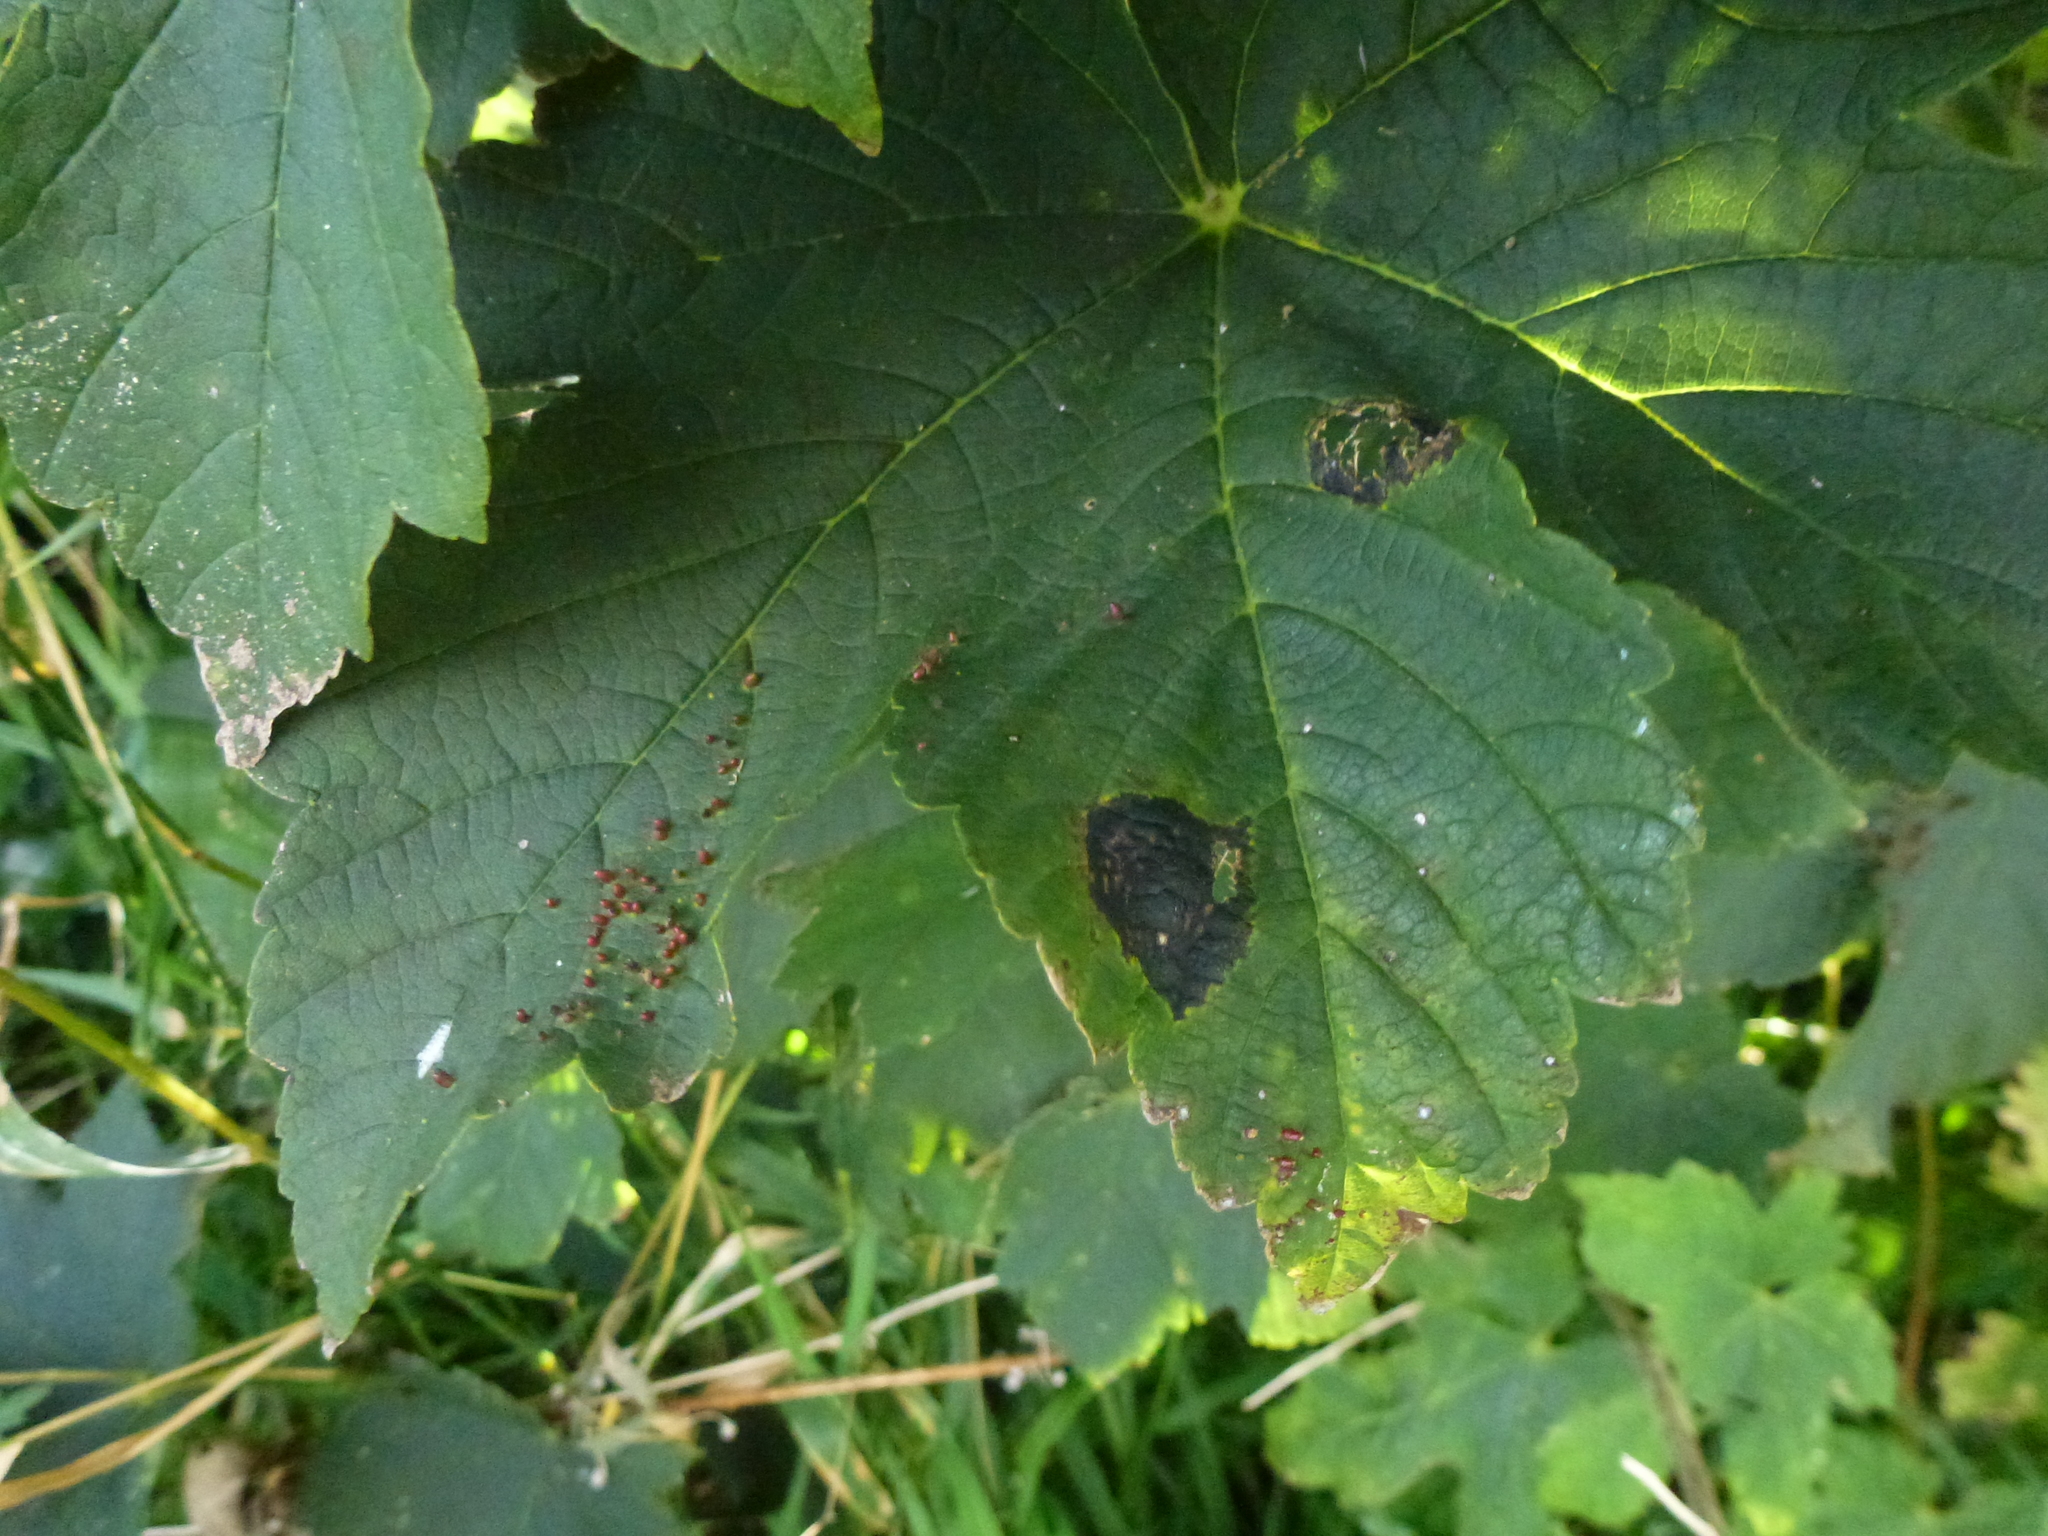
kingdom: Fungi
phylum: Ascomycota
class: Leotiomycetes
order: Rhytismatales
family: Rhytismataceae
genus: Rhytisma
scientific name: Rhytisma acerinum
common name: European tar spot
